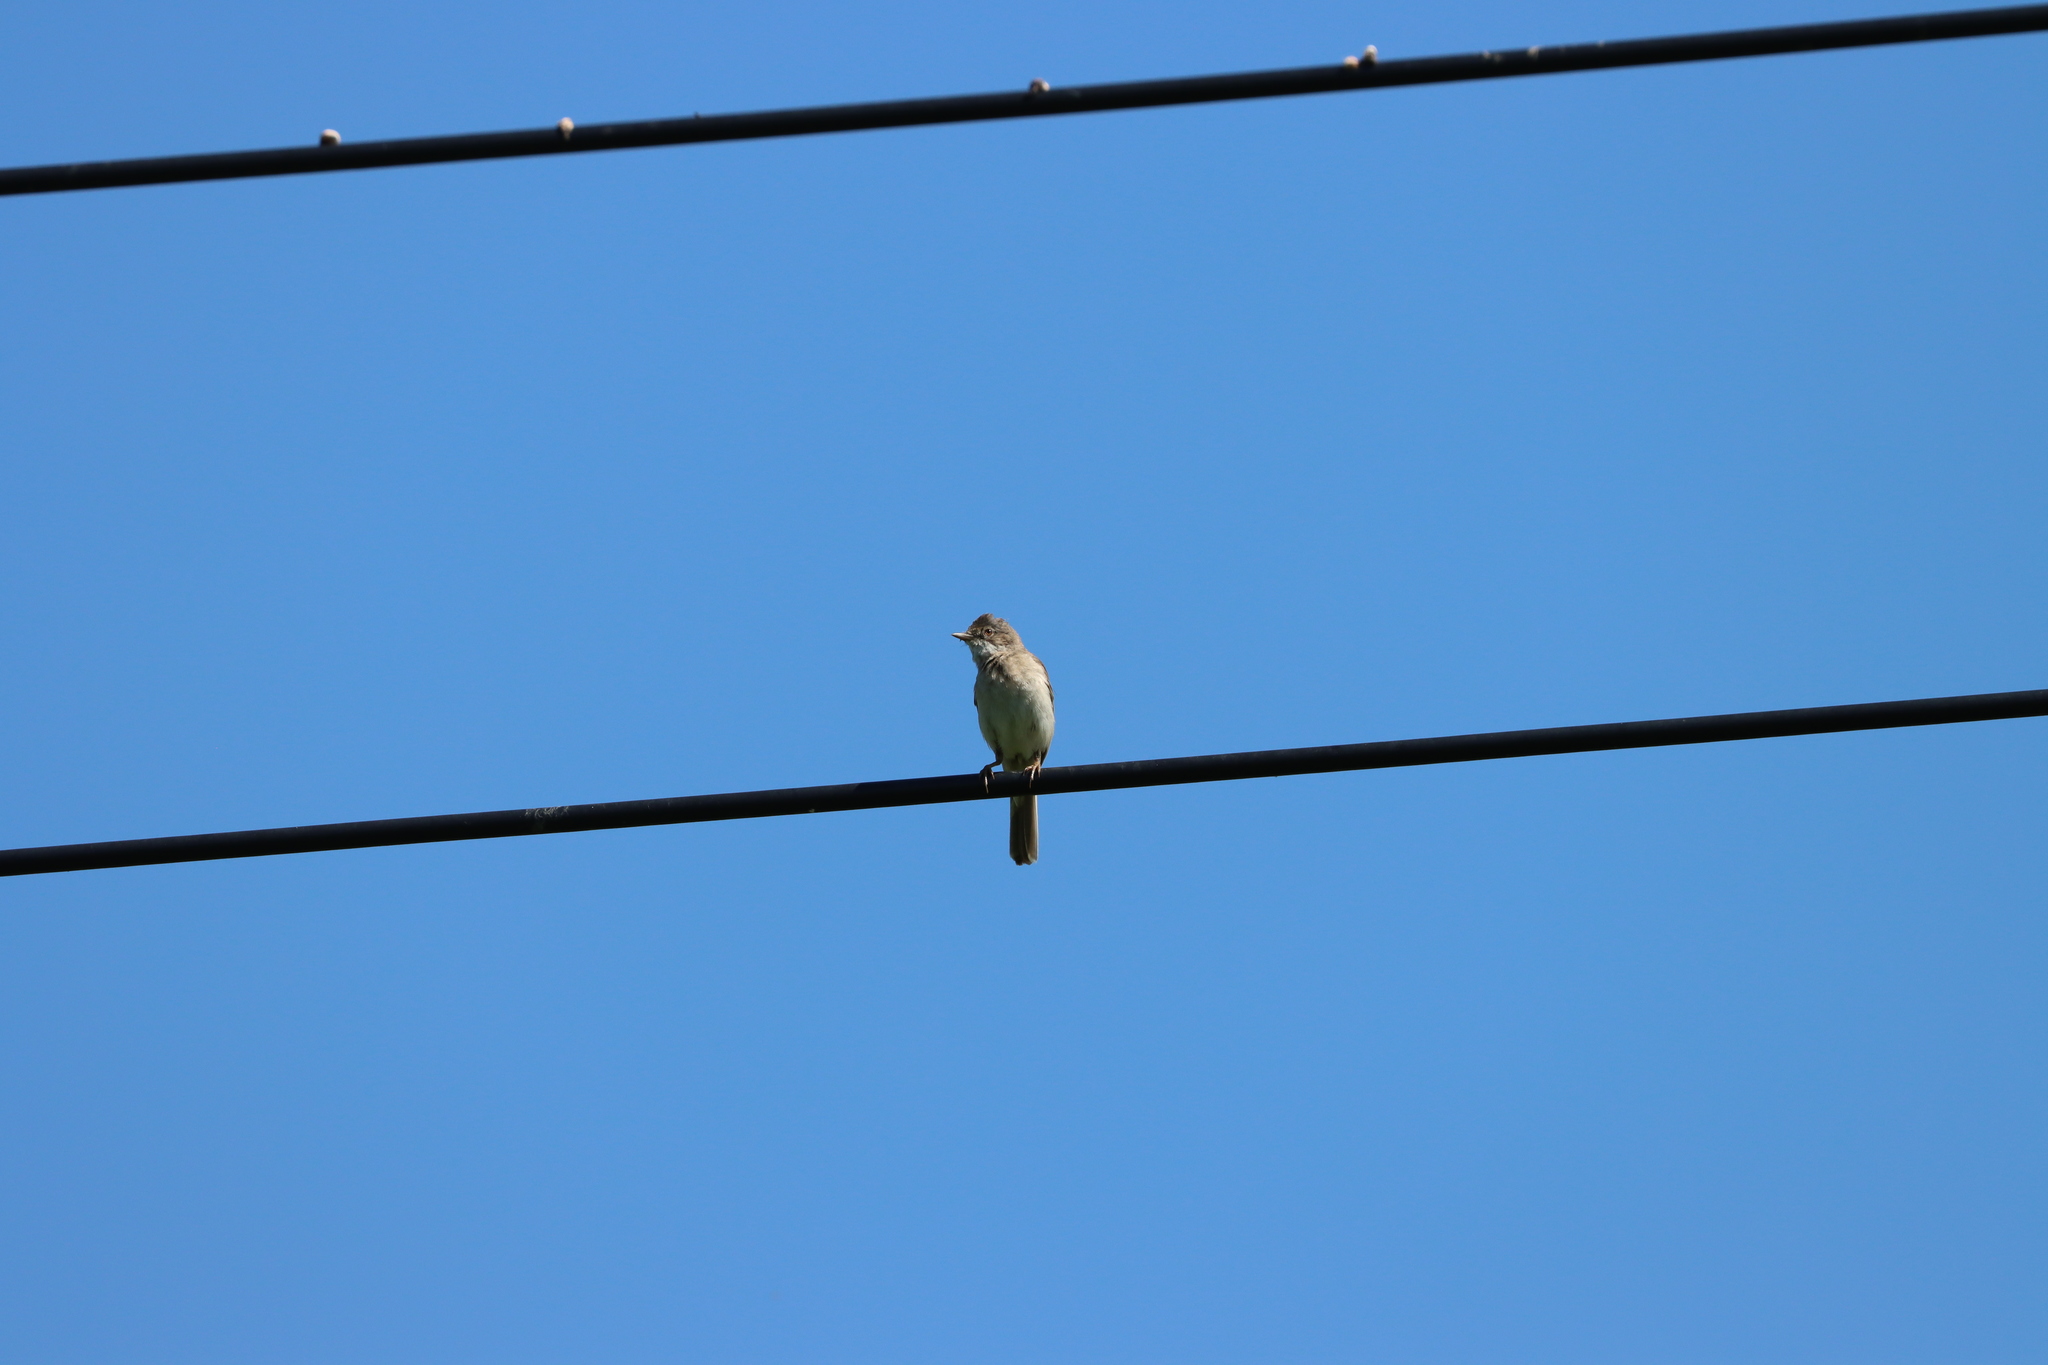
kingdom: Animalia
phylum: Chordata
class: Aves
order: Passeriformes
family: Sylviidae
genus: Sylvia
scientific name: Sylvia communis
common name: Common whitethroat
